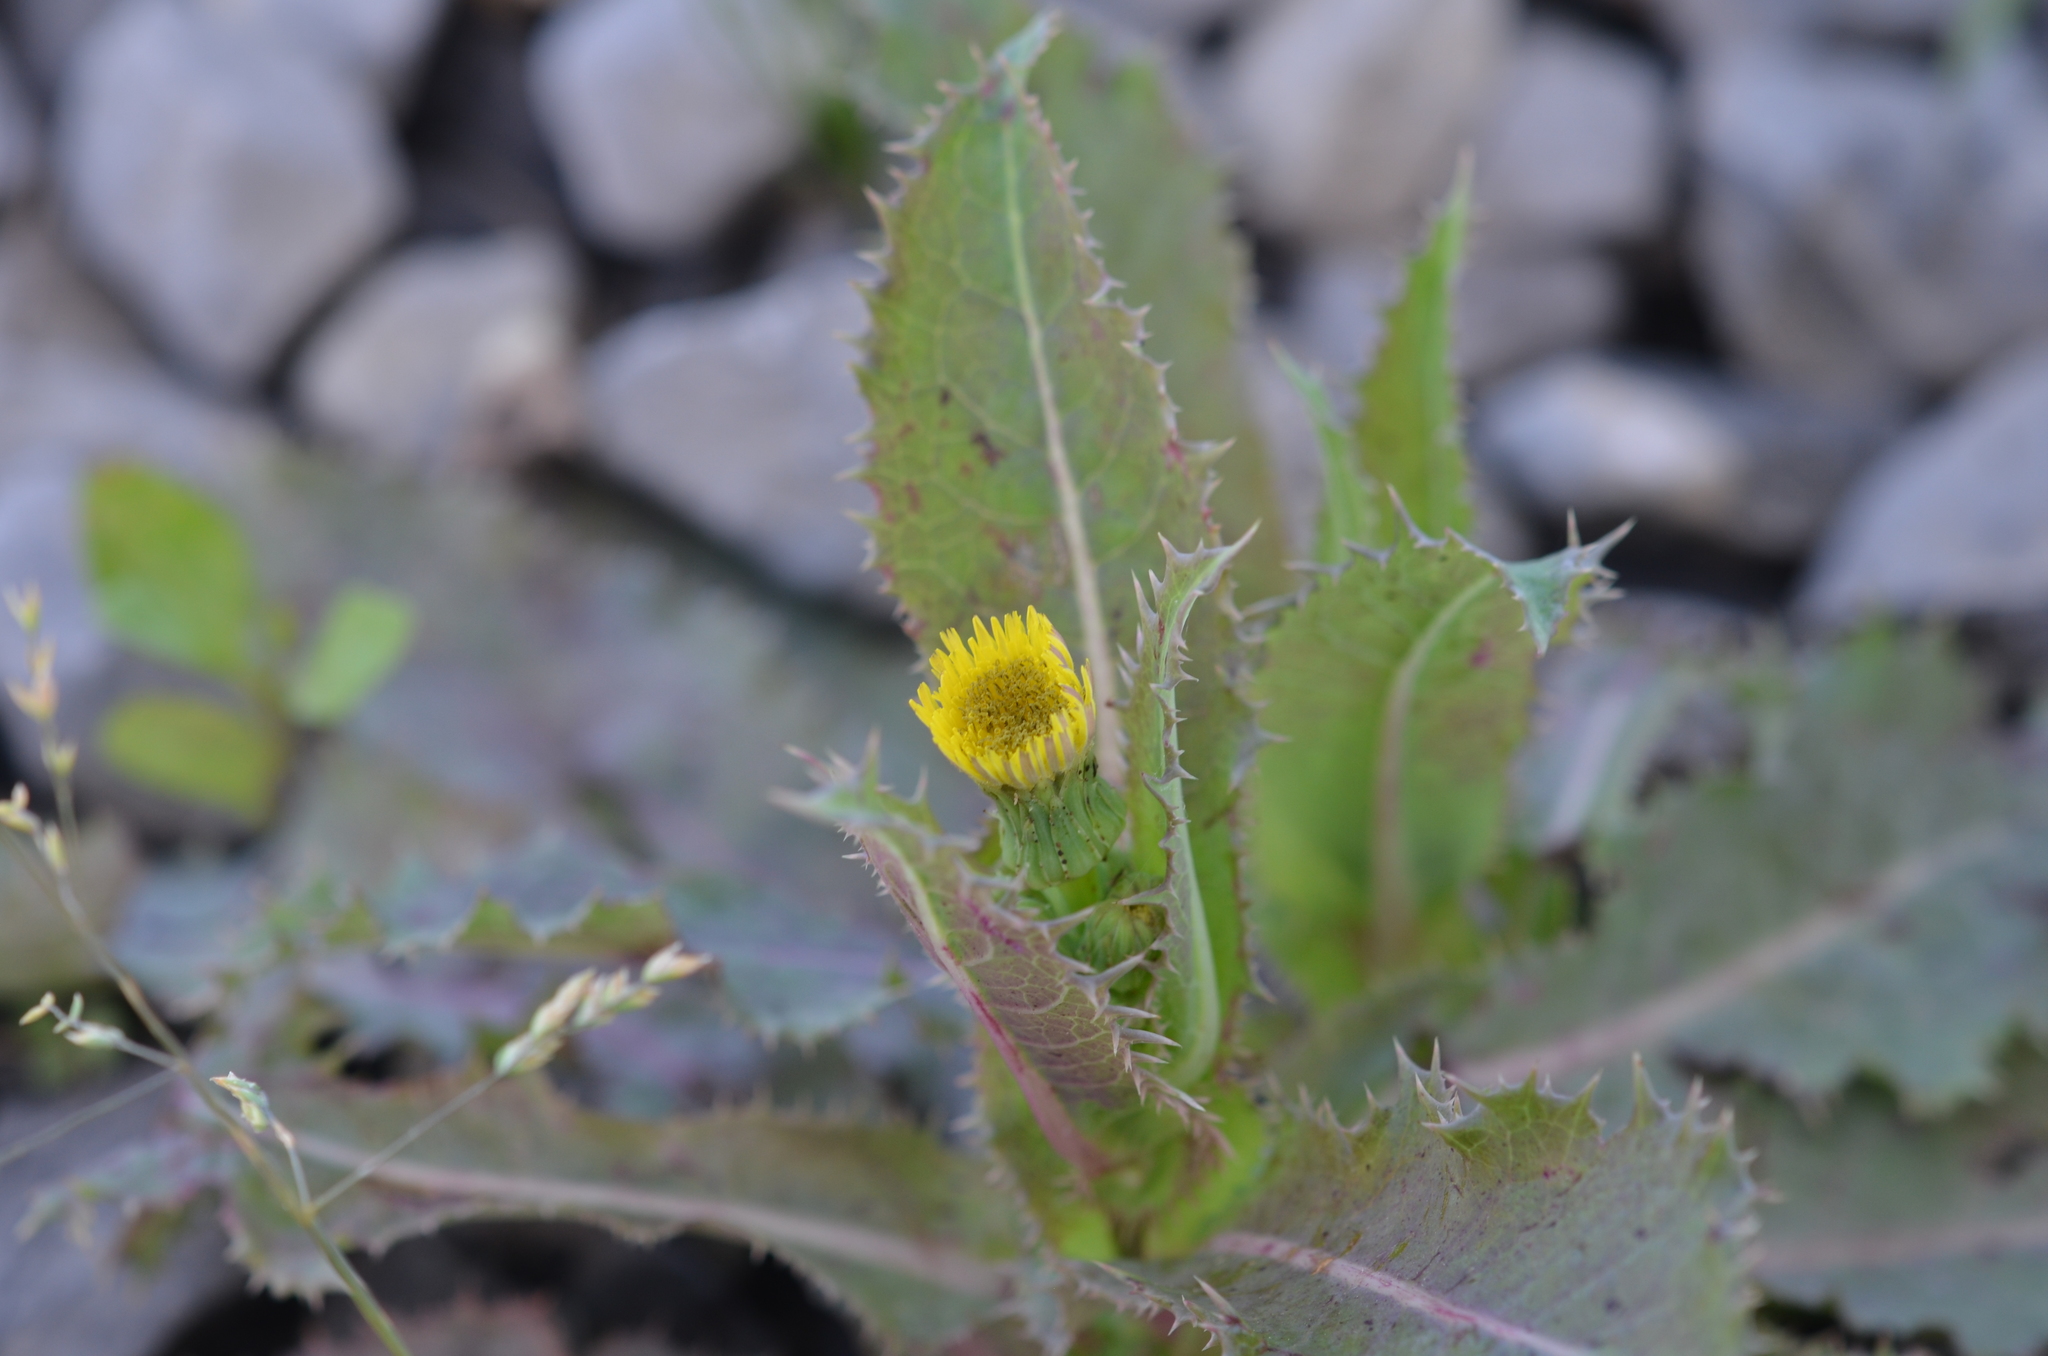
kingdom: Plantae
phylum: Tracheophyta
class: Magnoliopsida
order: Asterales
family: Asteraceae
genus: Sonchus
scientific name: Sonchus asper
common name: Prickly sow-thistle
